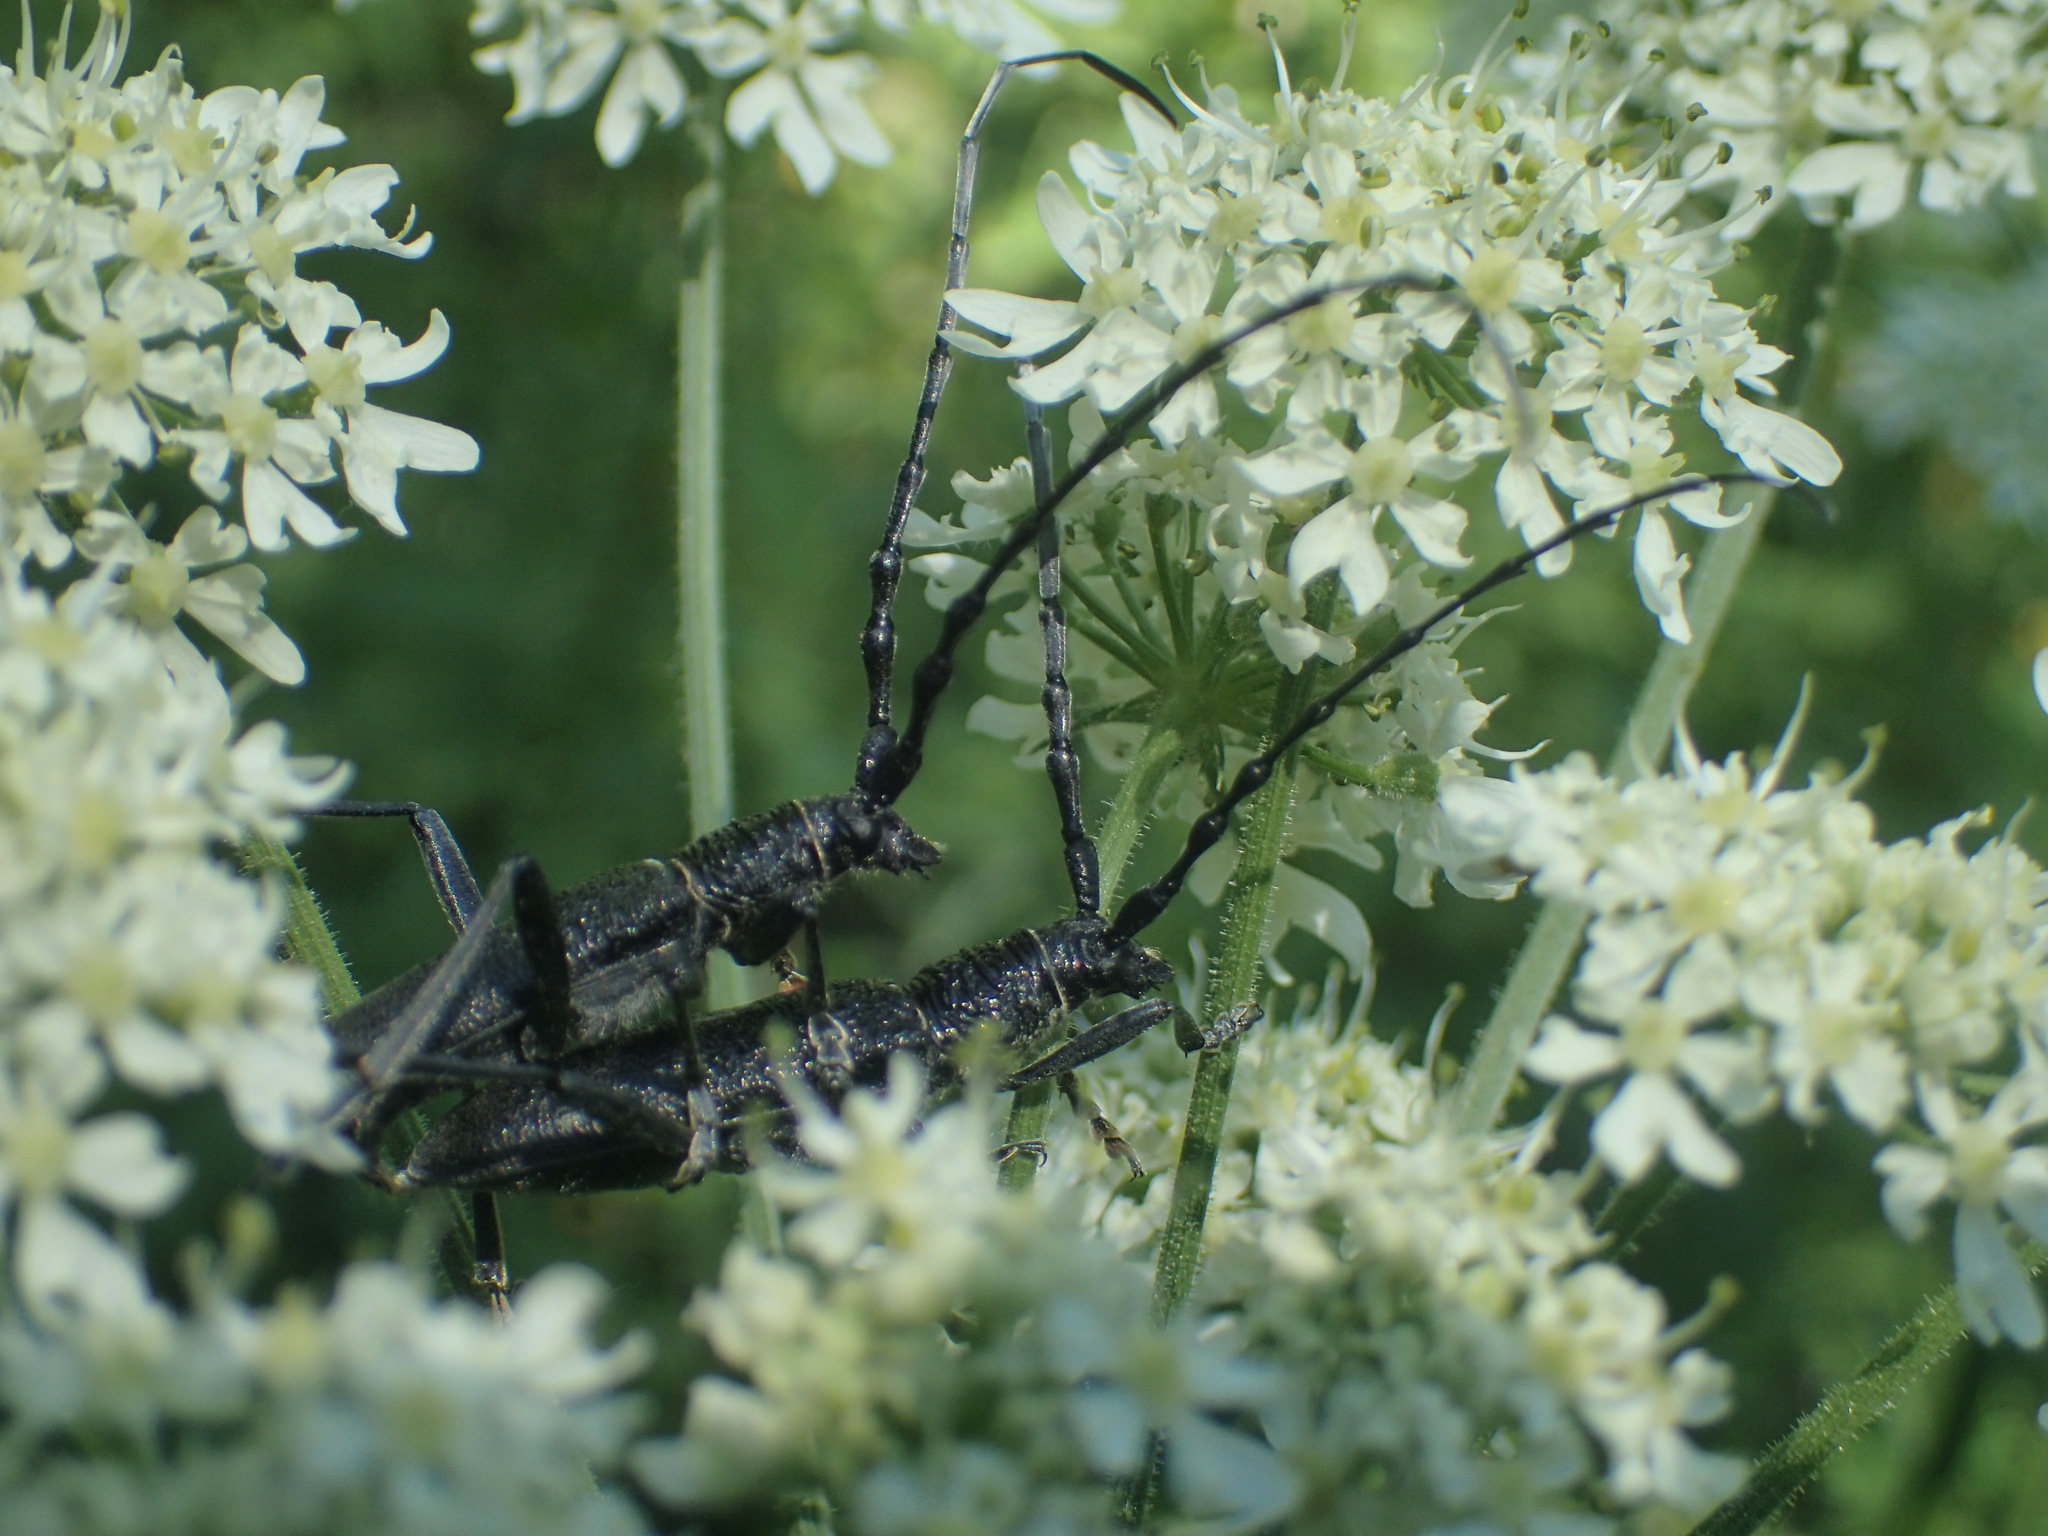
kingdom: Animalia
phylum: Arthropoda
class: Insecta
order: Coleoptera
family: Cerambycidae
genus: Cerambyx
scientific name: Cerambyx scopolii
